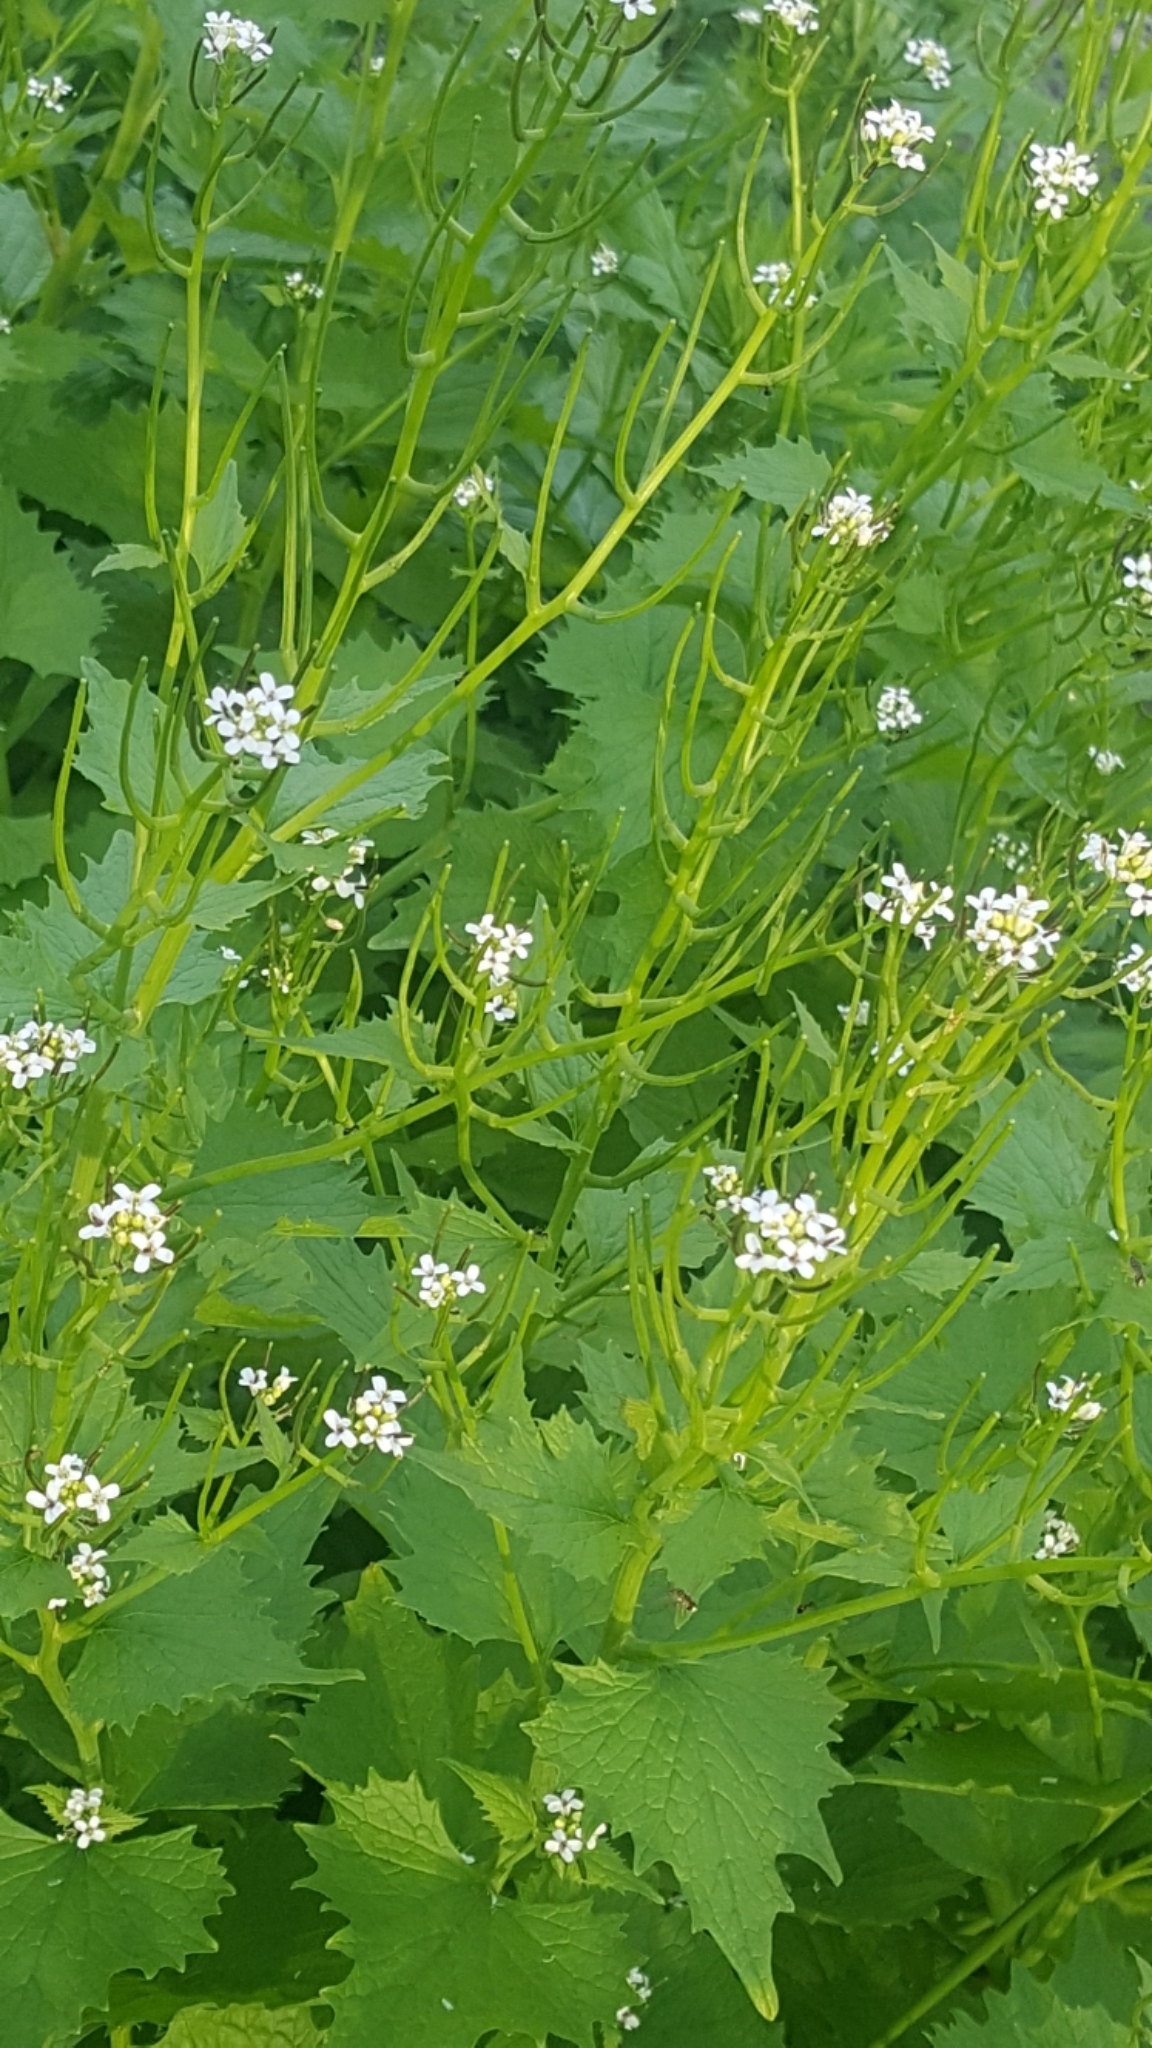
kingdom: Plantae
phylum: Tracheophyta
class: Magnoliopsida
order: Brassicales
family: Brassicaceae
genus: Alliaria
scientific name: Alliaria petiolata
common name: Garlic mustard
